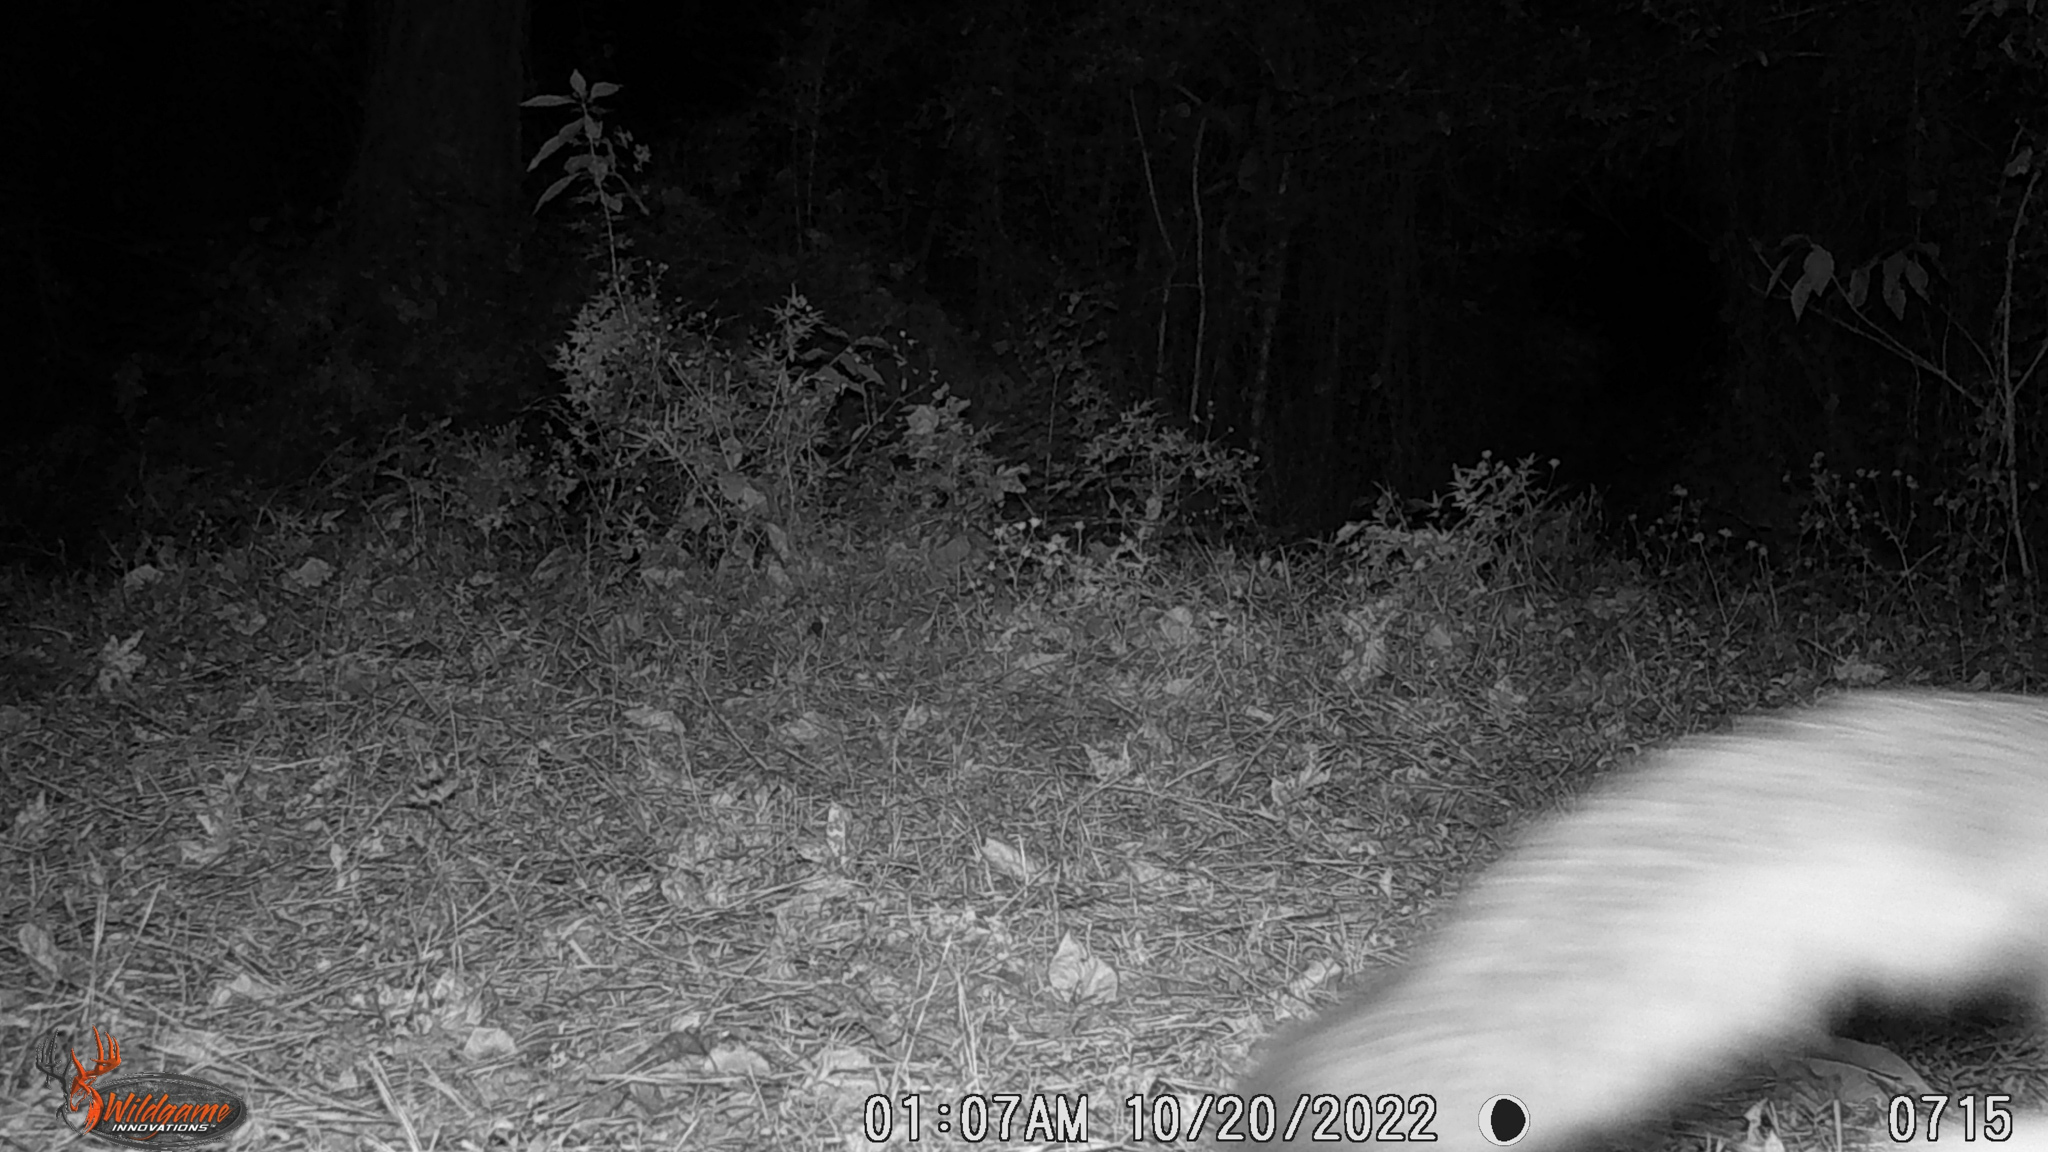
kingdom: Animalia
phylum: Chordata
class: Mammalia
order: Carnivora
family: Canidae
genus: Urocyon
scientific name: Urocyon cinereoargenteus
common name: Gray fox
